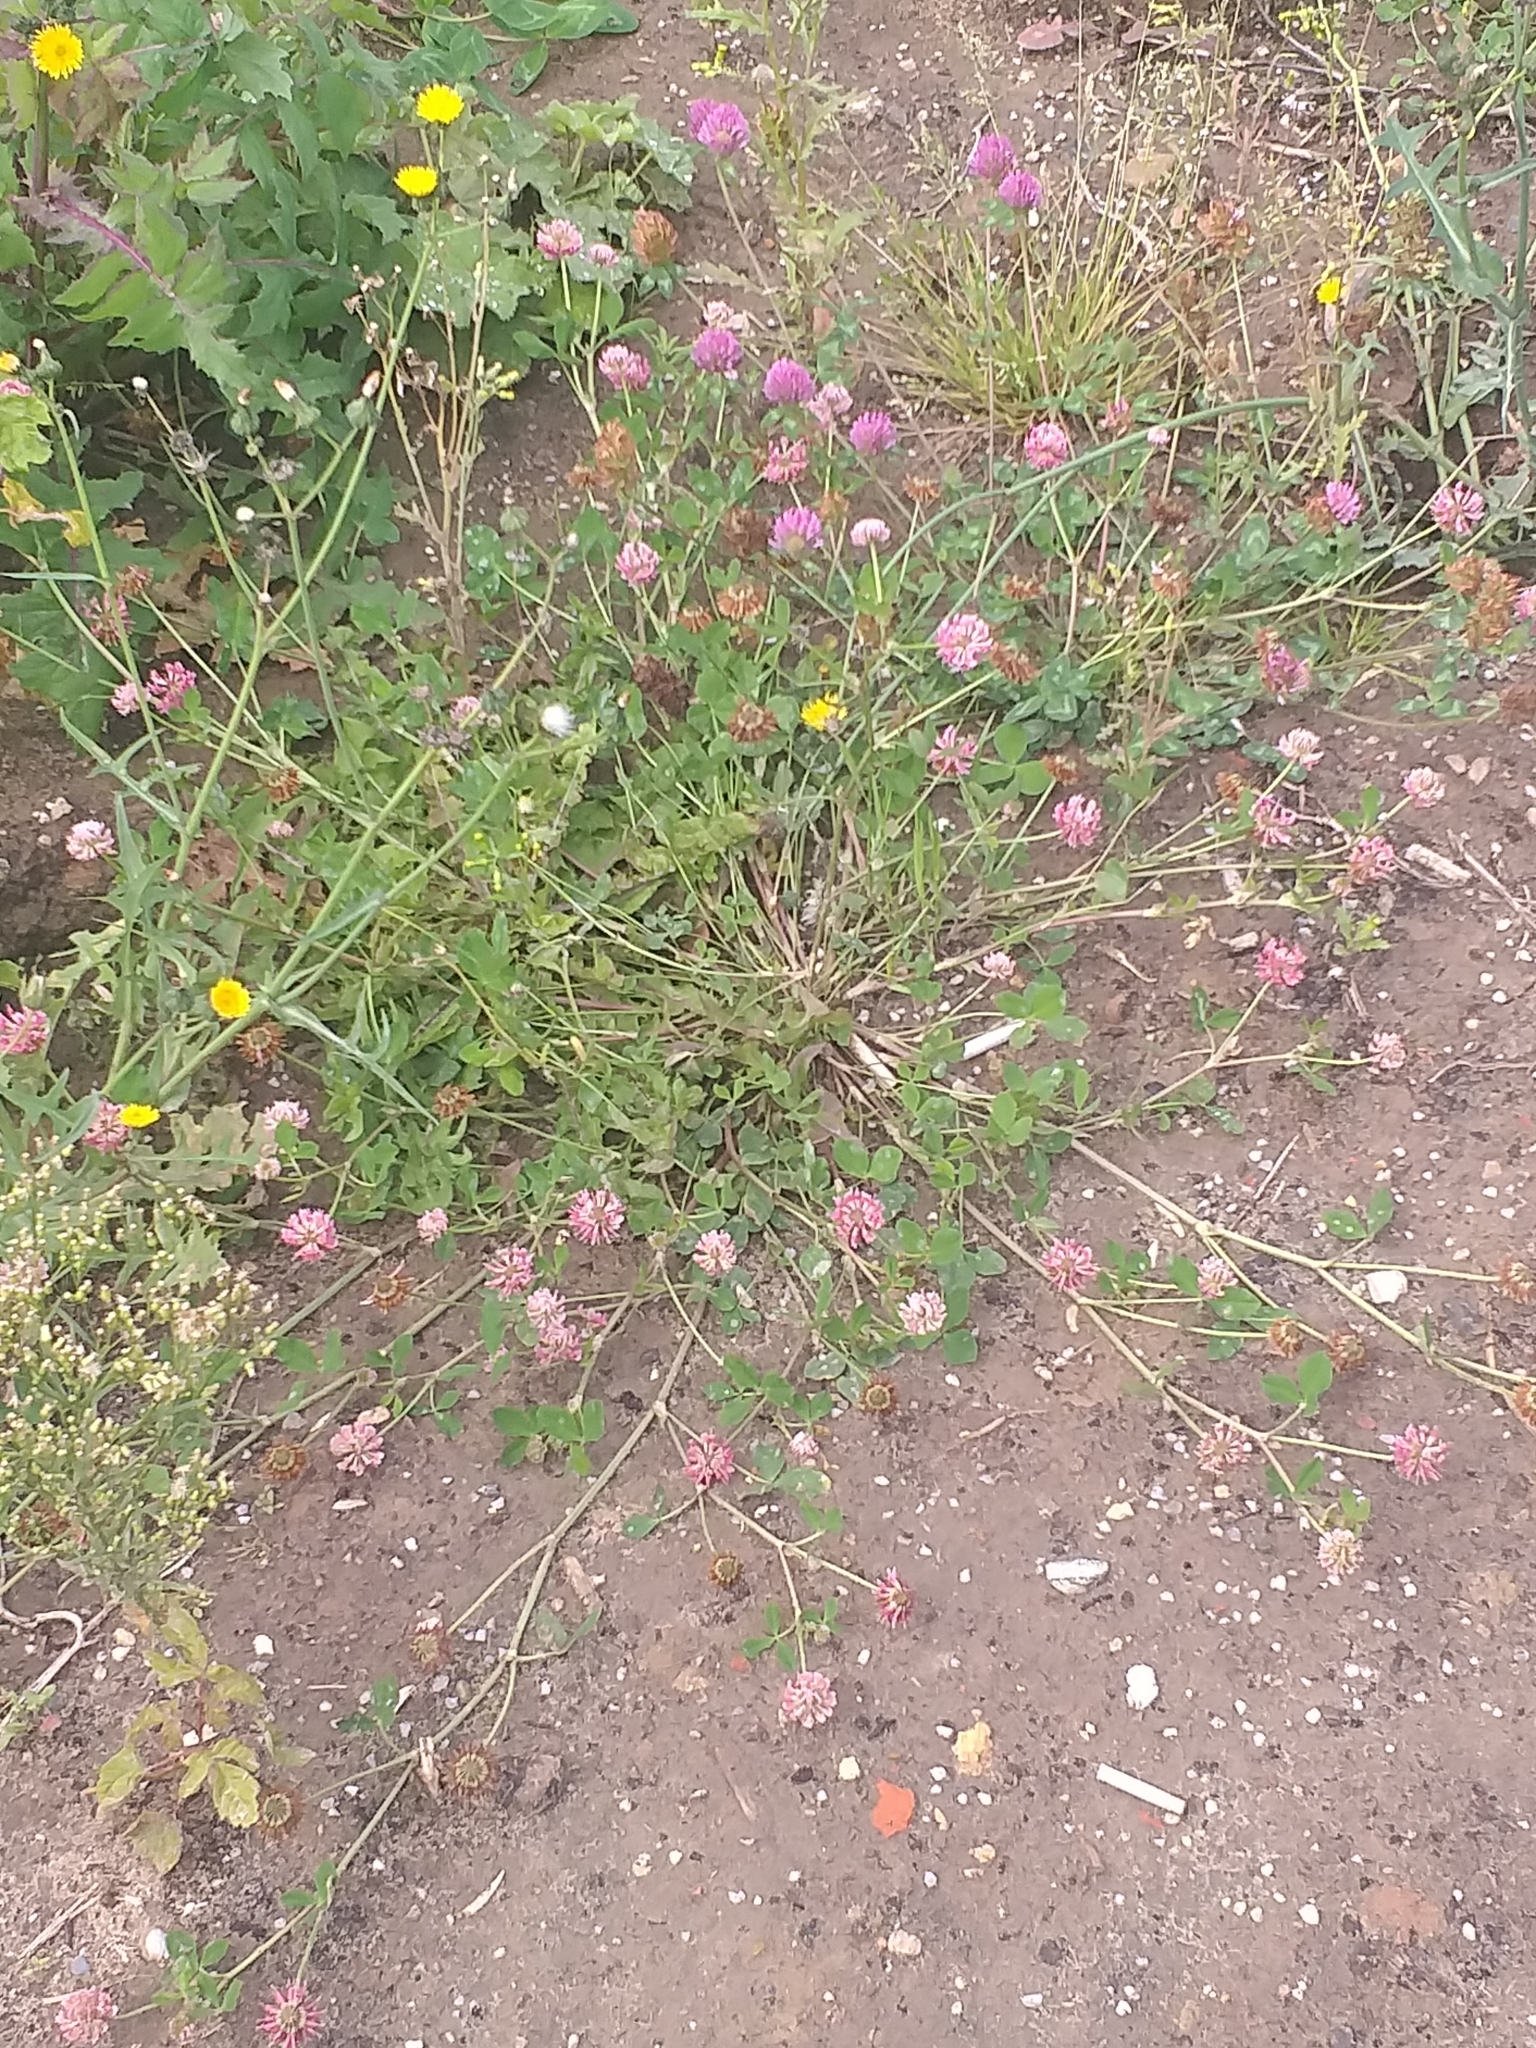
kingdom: Plantae
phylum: Tracheophyta
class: Magnoliopsida
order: Fabales
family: Fabaceae
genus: Trifolium
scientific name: Trifolium hybridum
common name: Alsike clover
